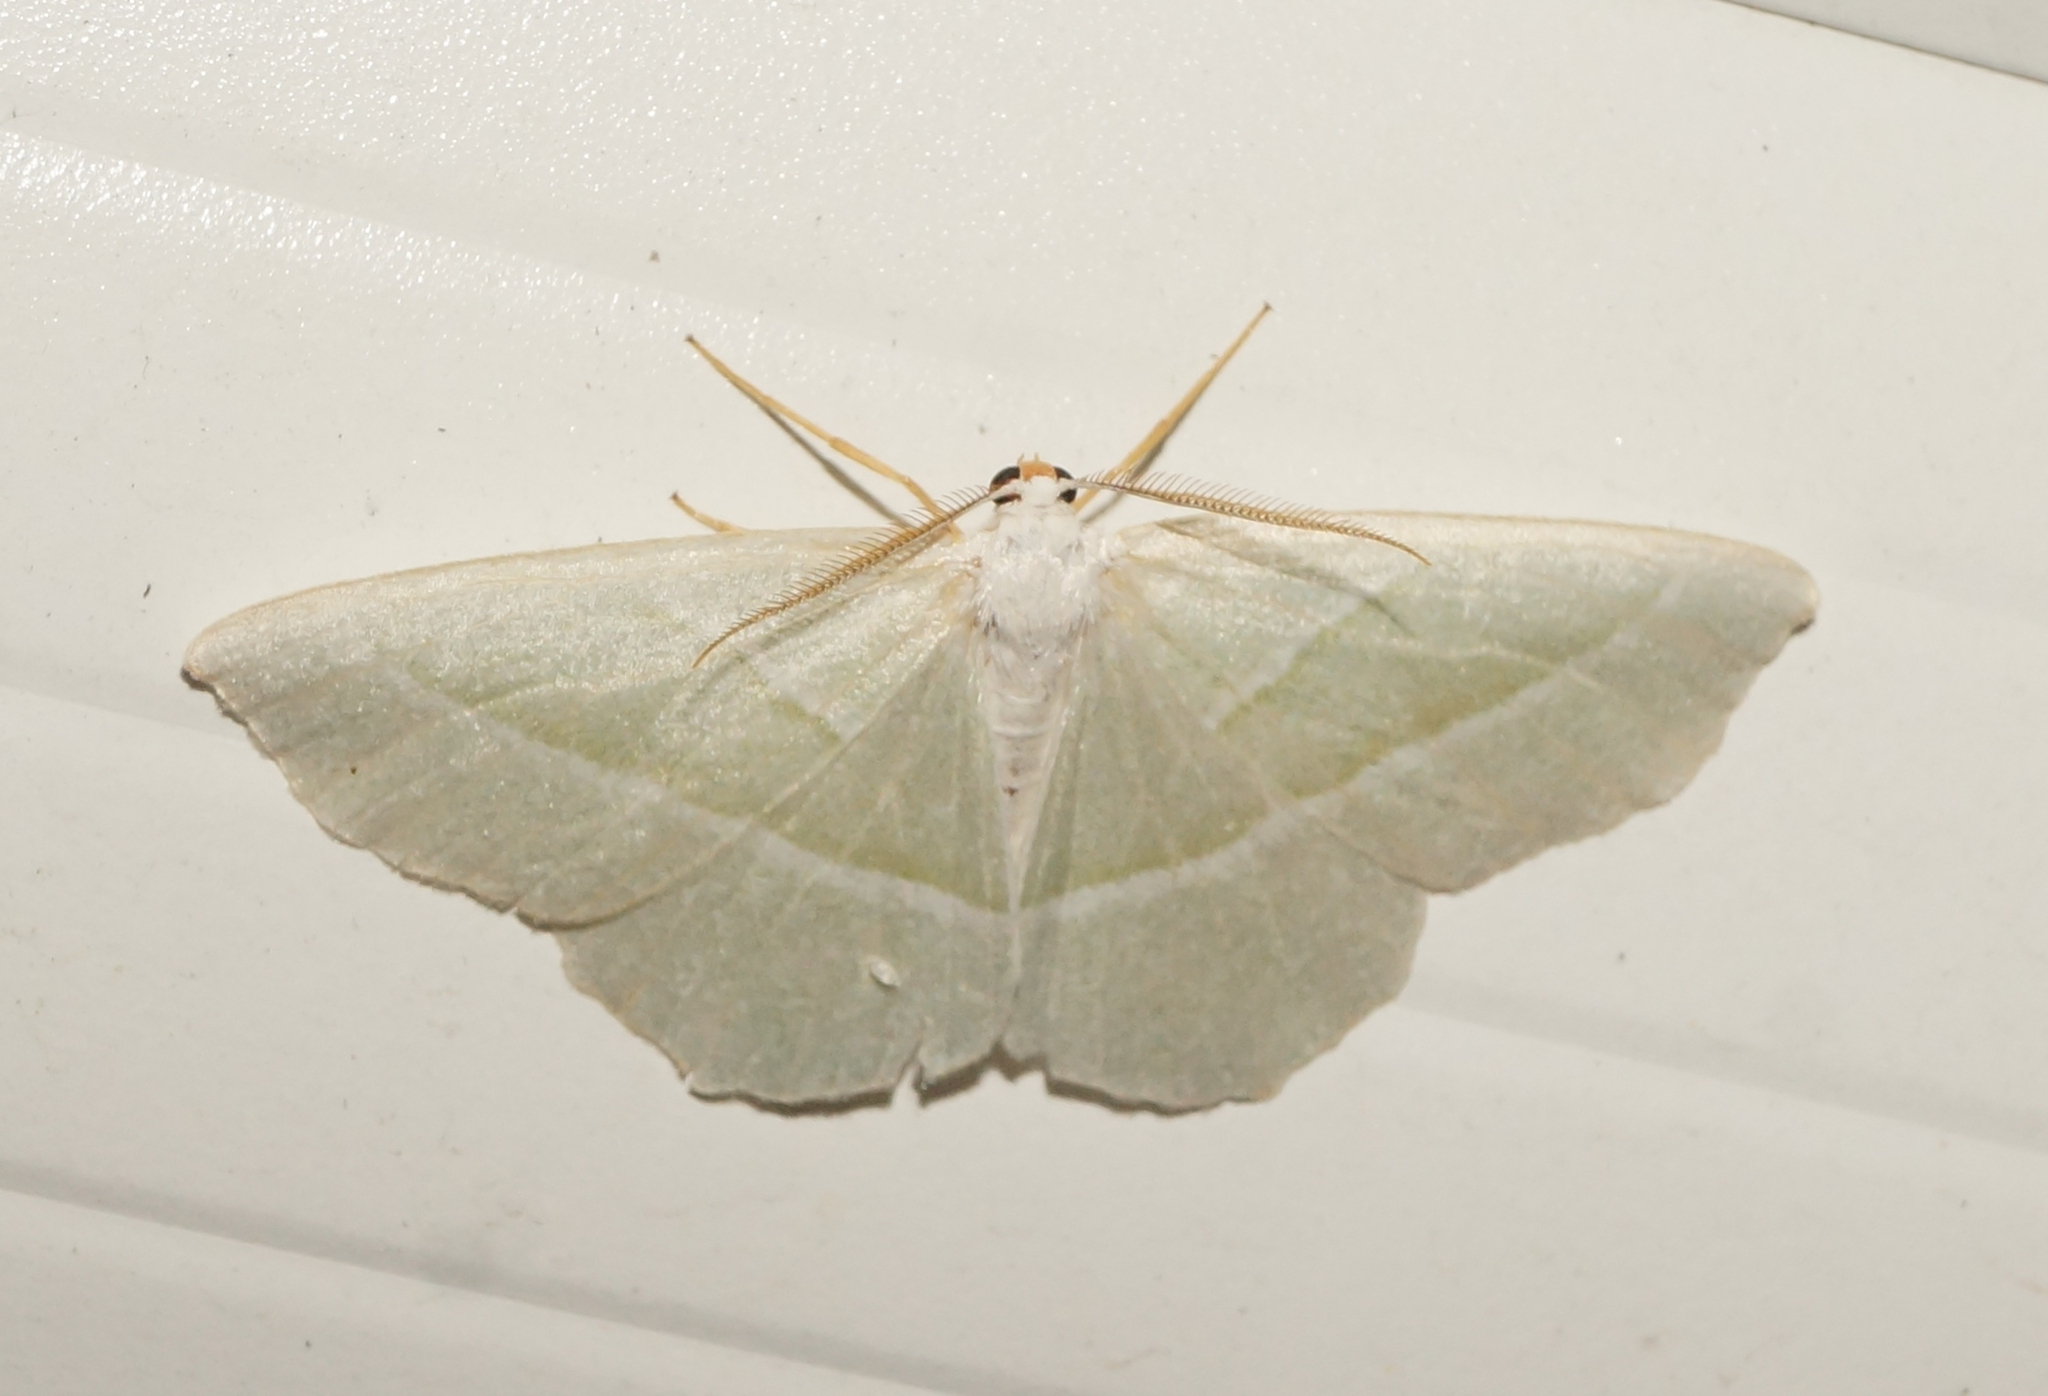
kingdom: Animalia
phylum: Arthropoda
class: Insecta
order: Lepidoptera
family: Geometridae
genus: Campaea
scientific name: Campaea margaritaria
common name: Light emerald
